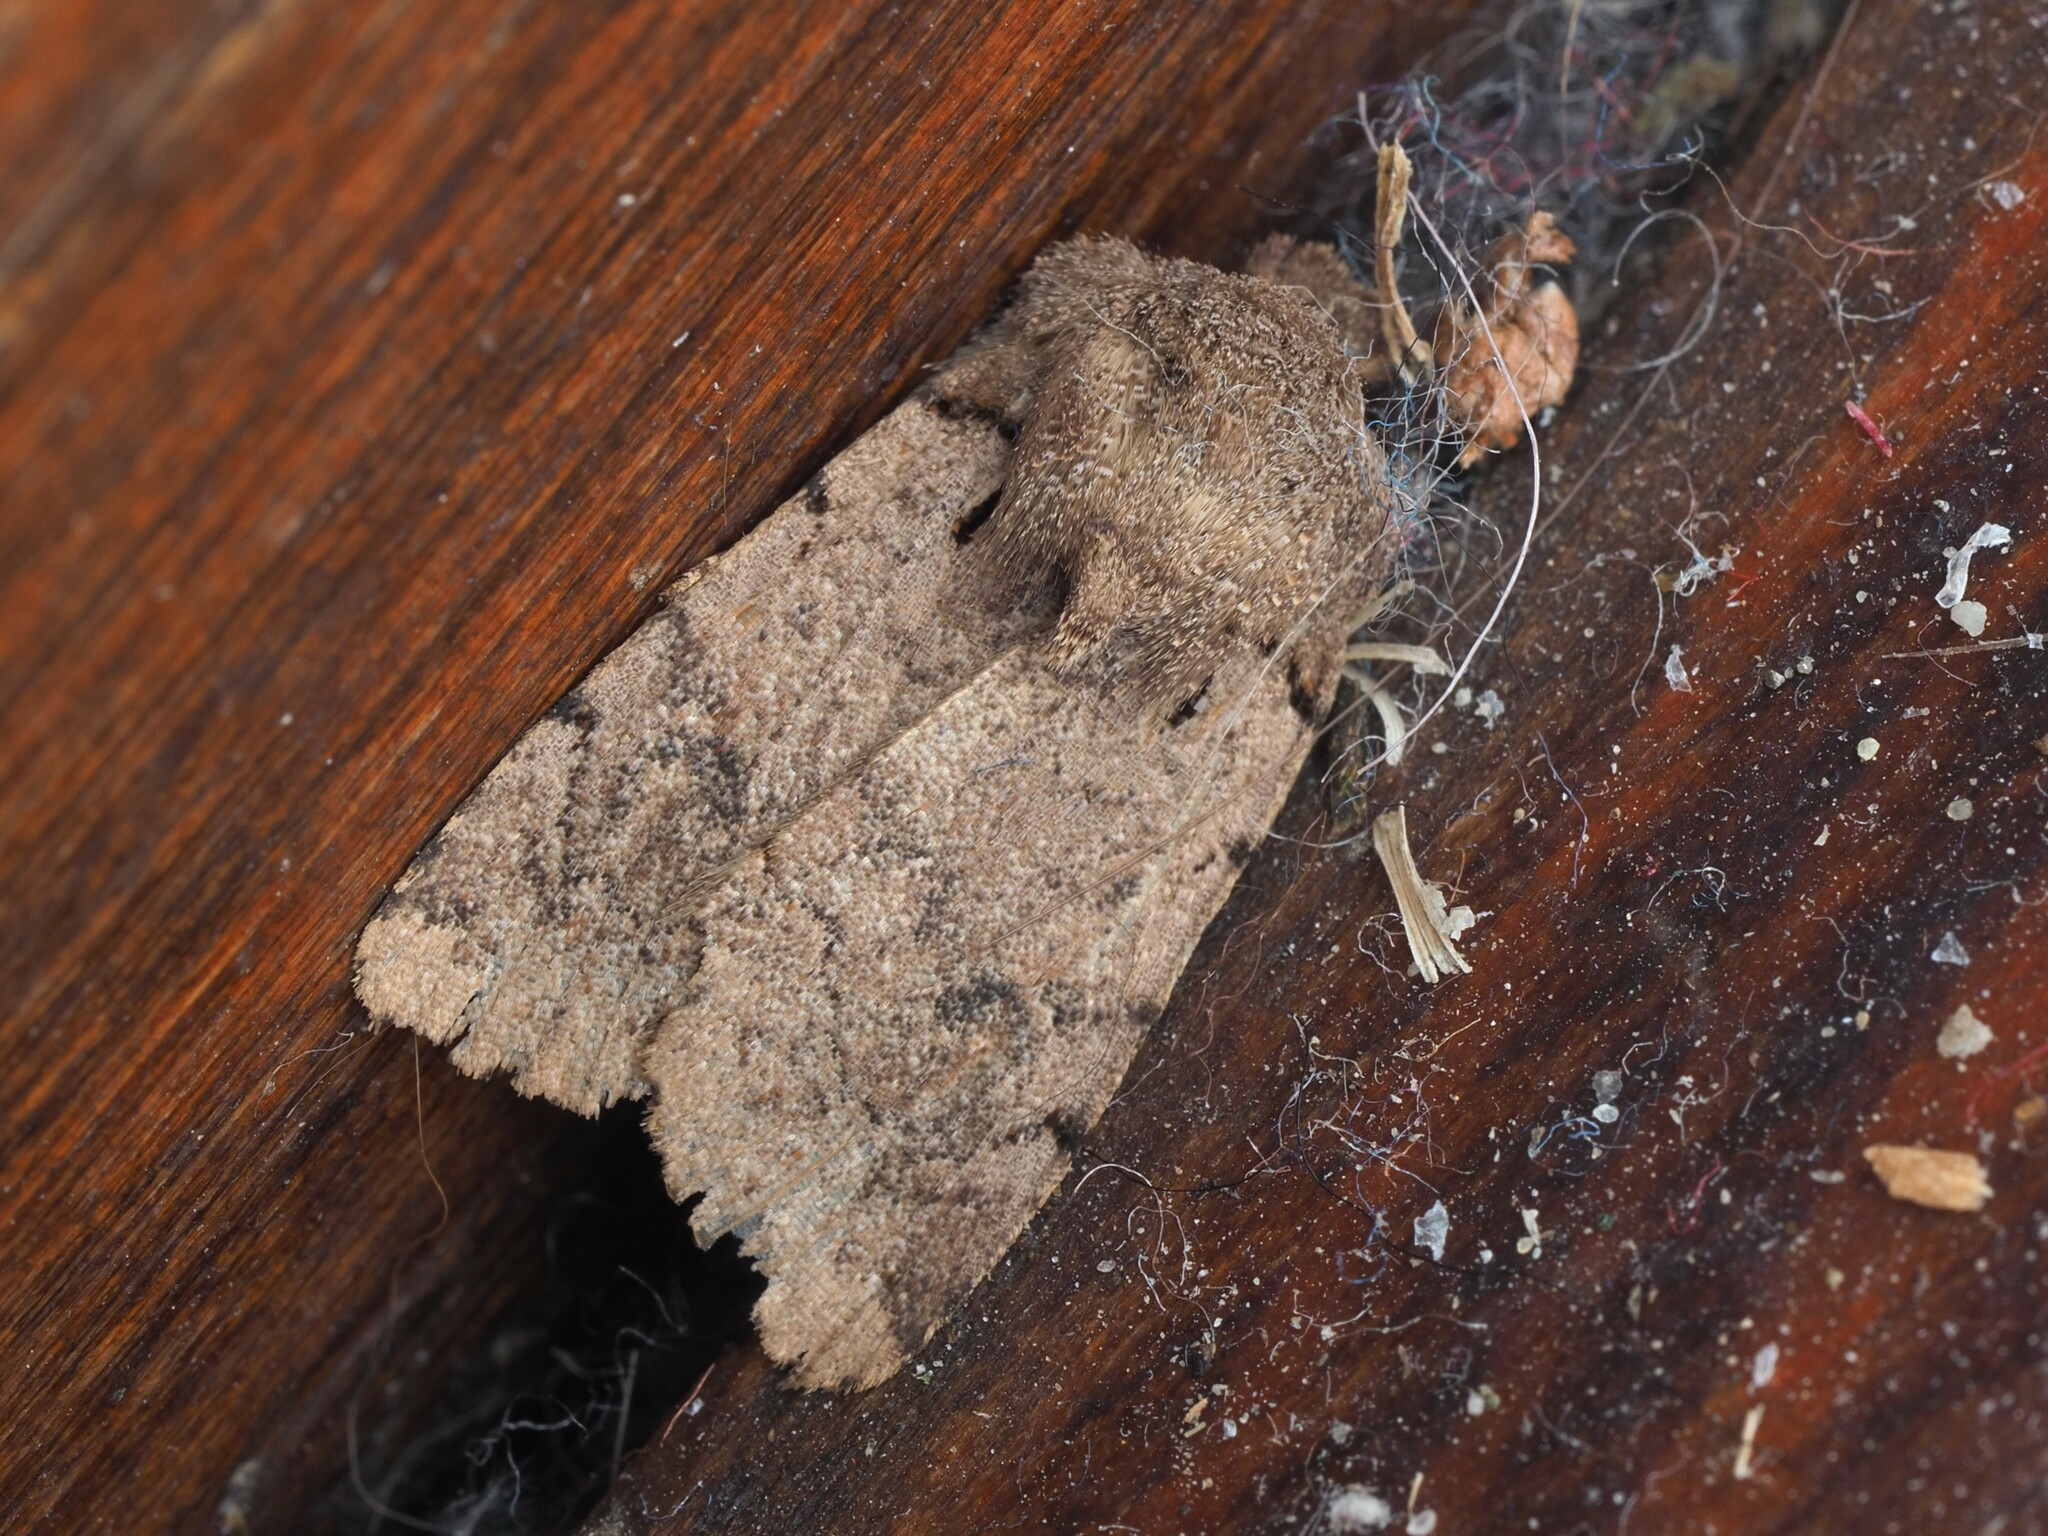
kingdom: Animalia
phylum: Arthropoda
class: Insecta
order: Lepidoptera
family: Noctuidae
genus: Austramathes
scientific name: Austramathes
